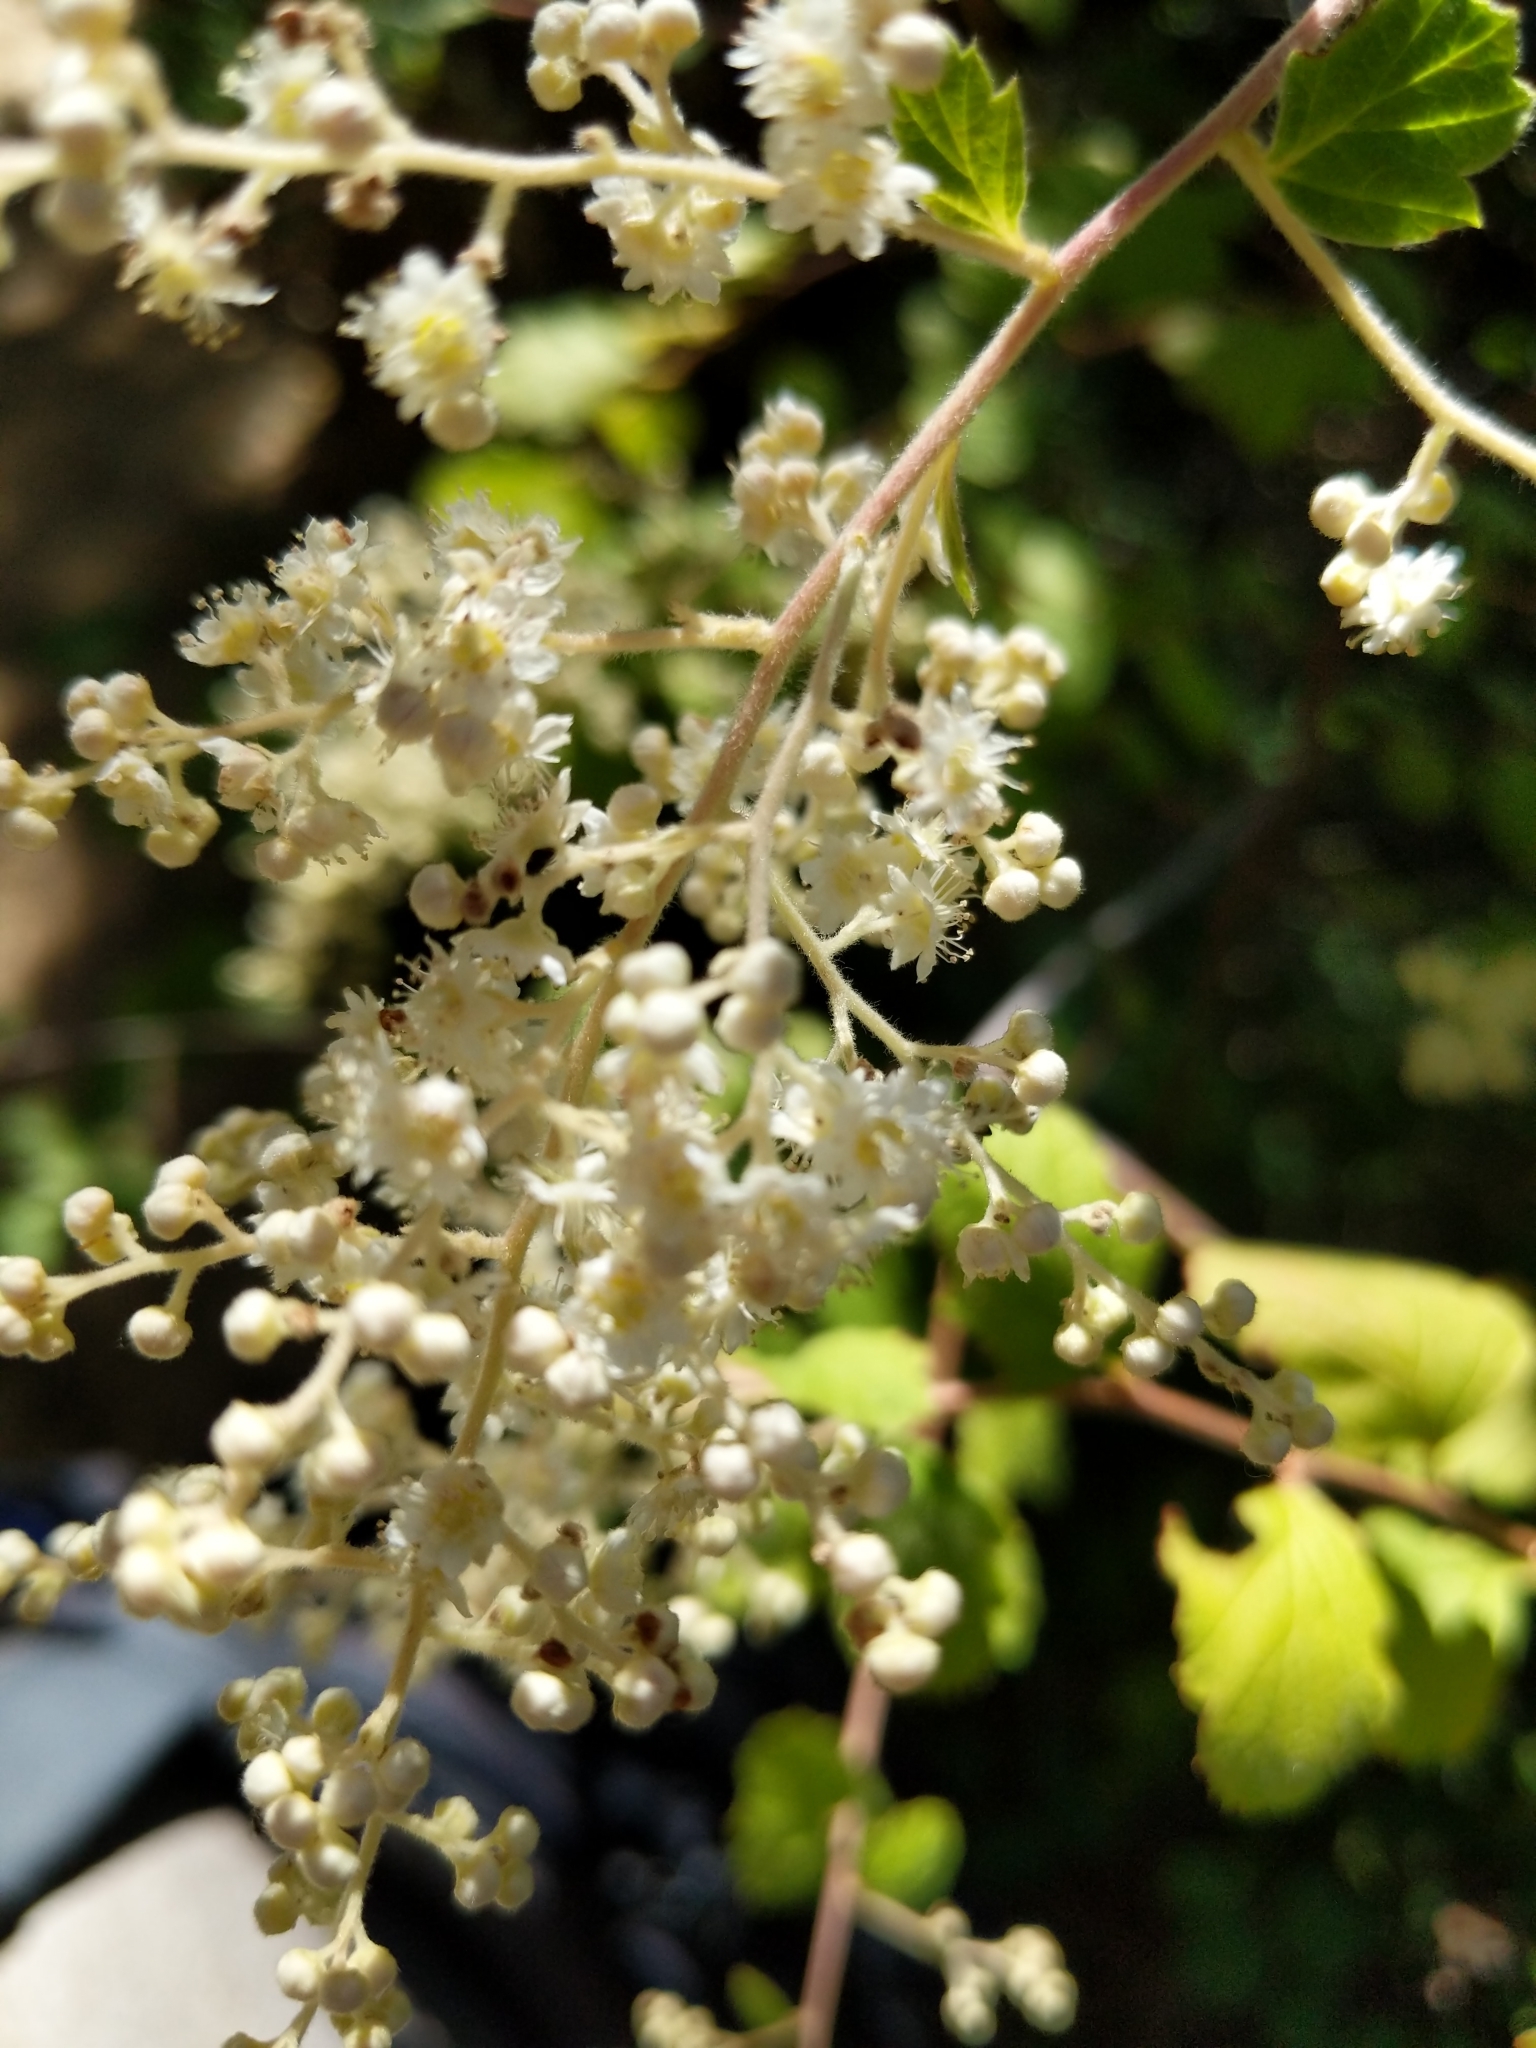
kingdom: Plantae
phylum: Tracheophyta
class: Magnoliopsida
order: Rosales
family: Rosaceae
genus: Holodiscus
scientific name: Holodiscus discolor
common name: Oceanspray
